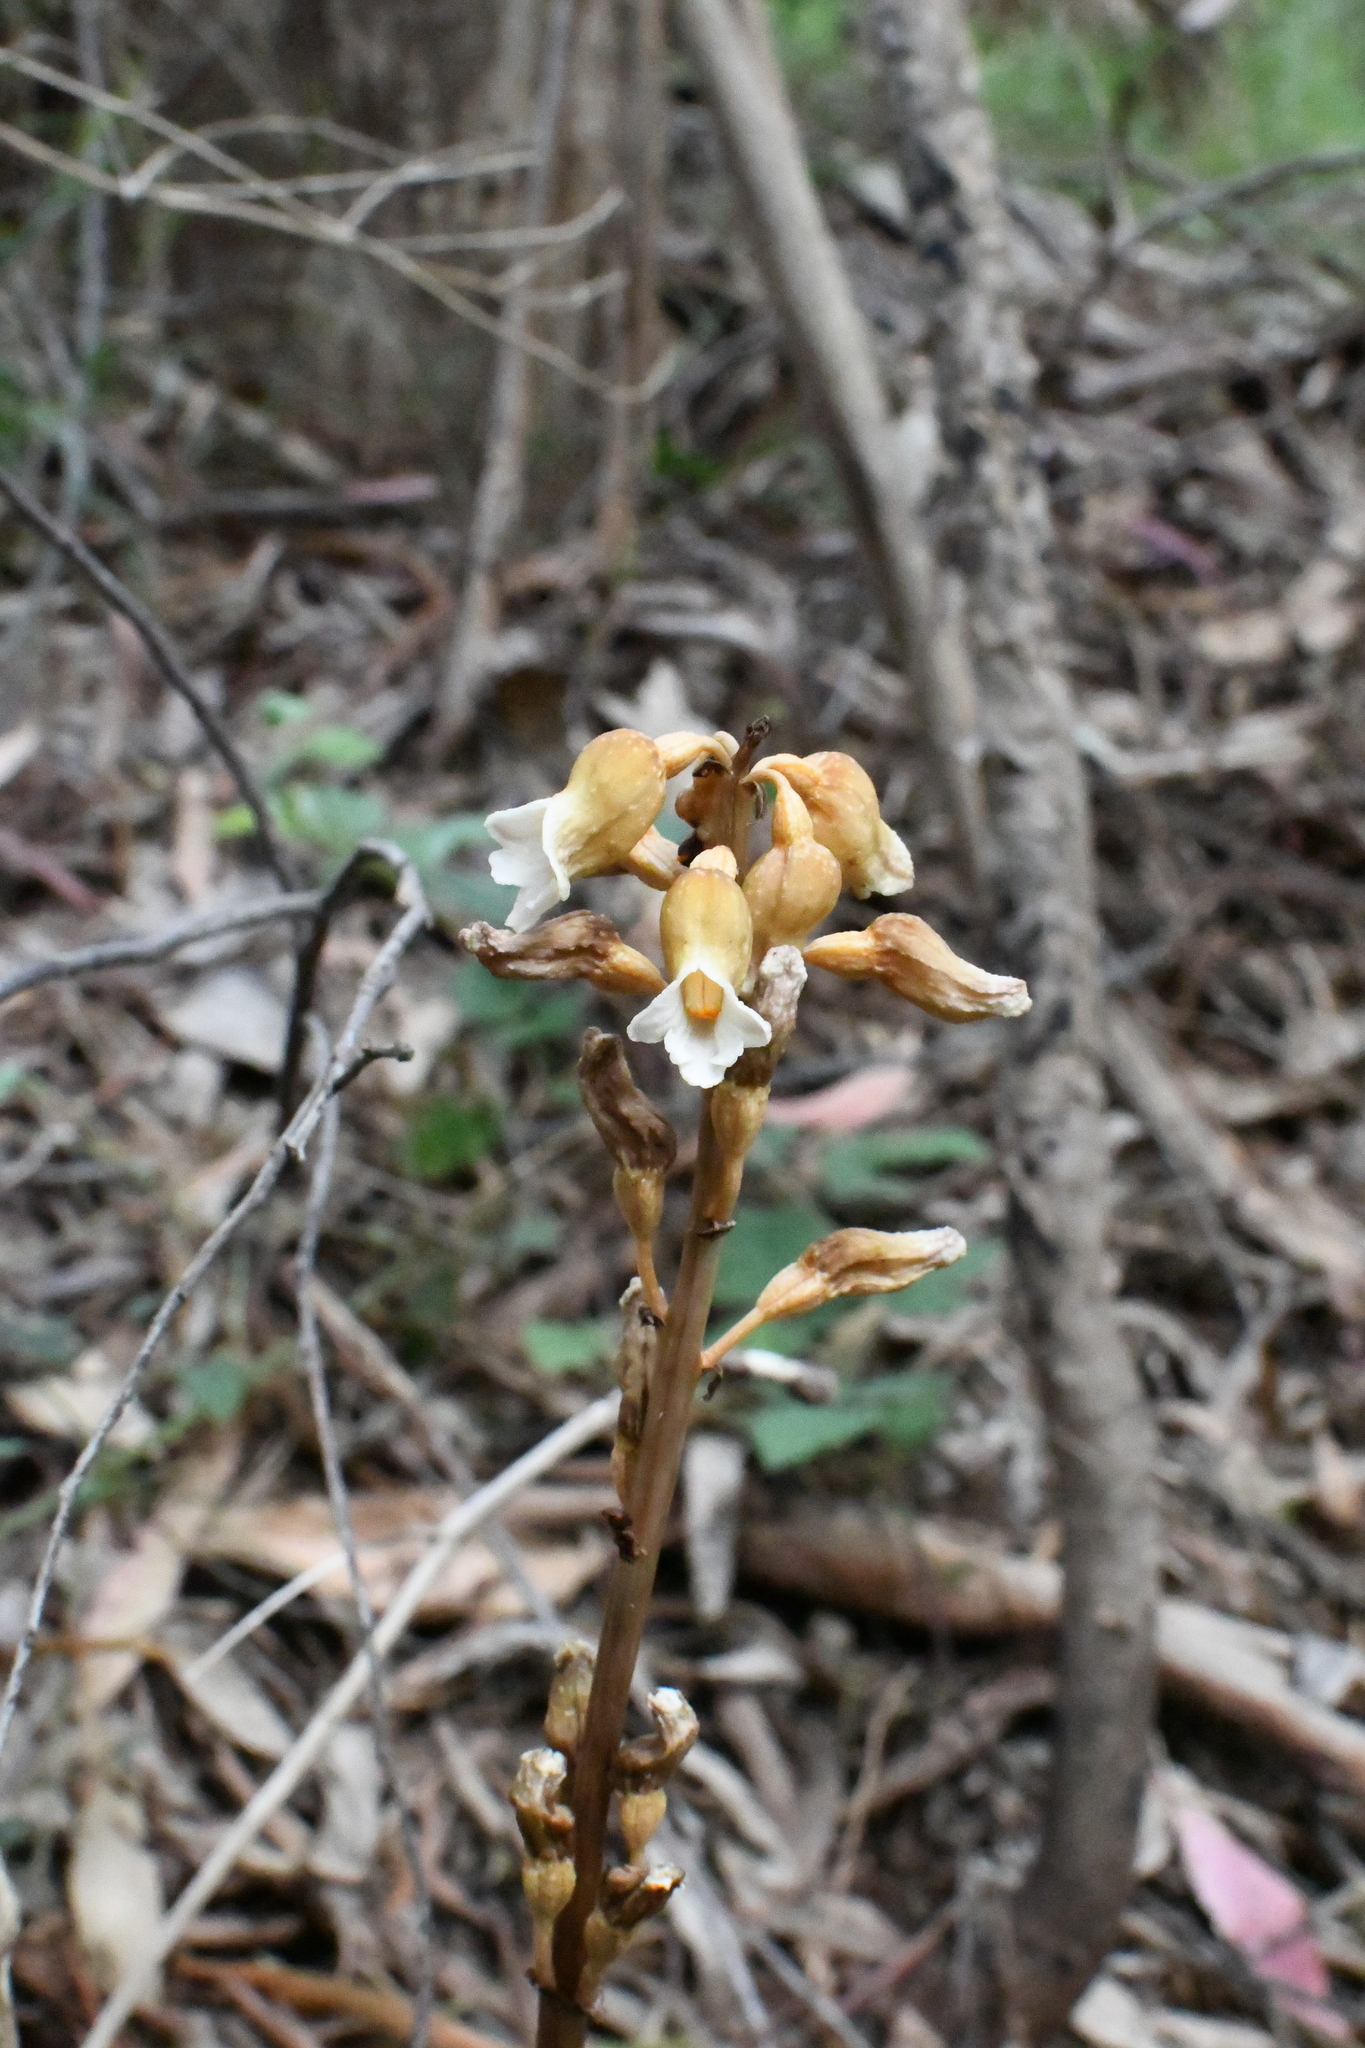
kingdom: Plantae
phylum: Tracheophyta
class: Liliopsida
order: Asparagales
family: Orchidaceae
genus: Gastrodia
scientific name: Gastrodia procera
